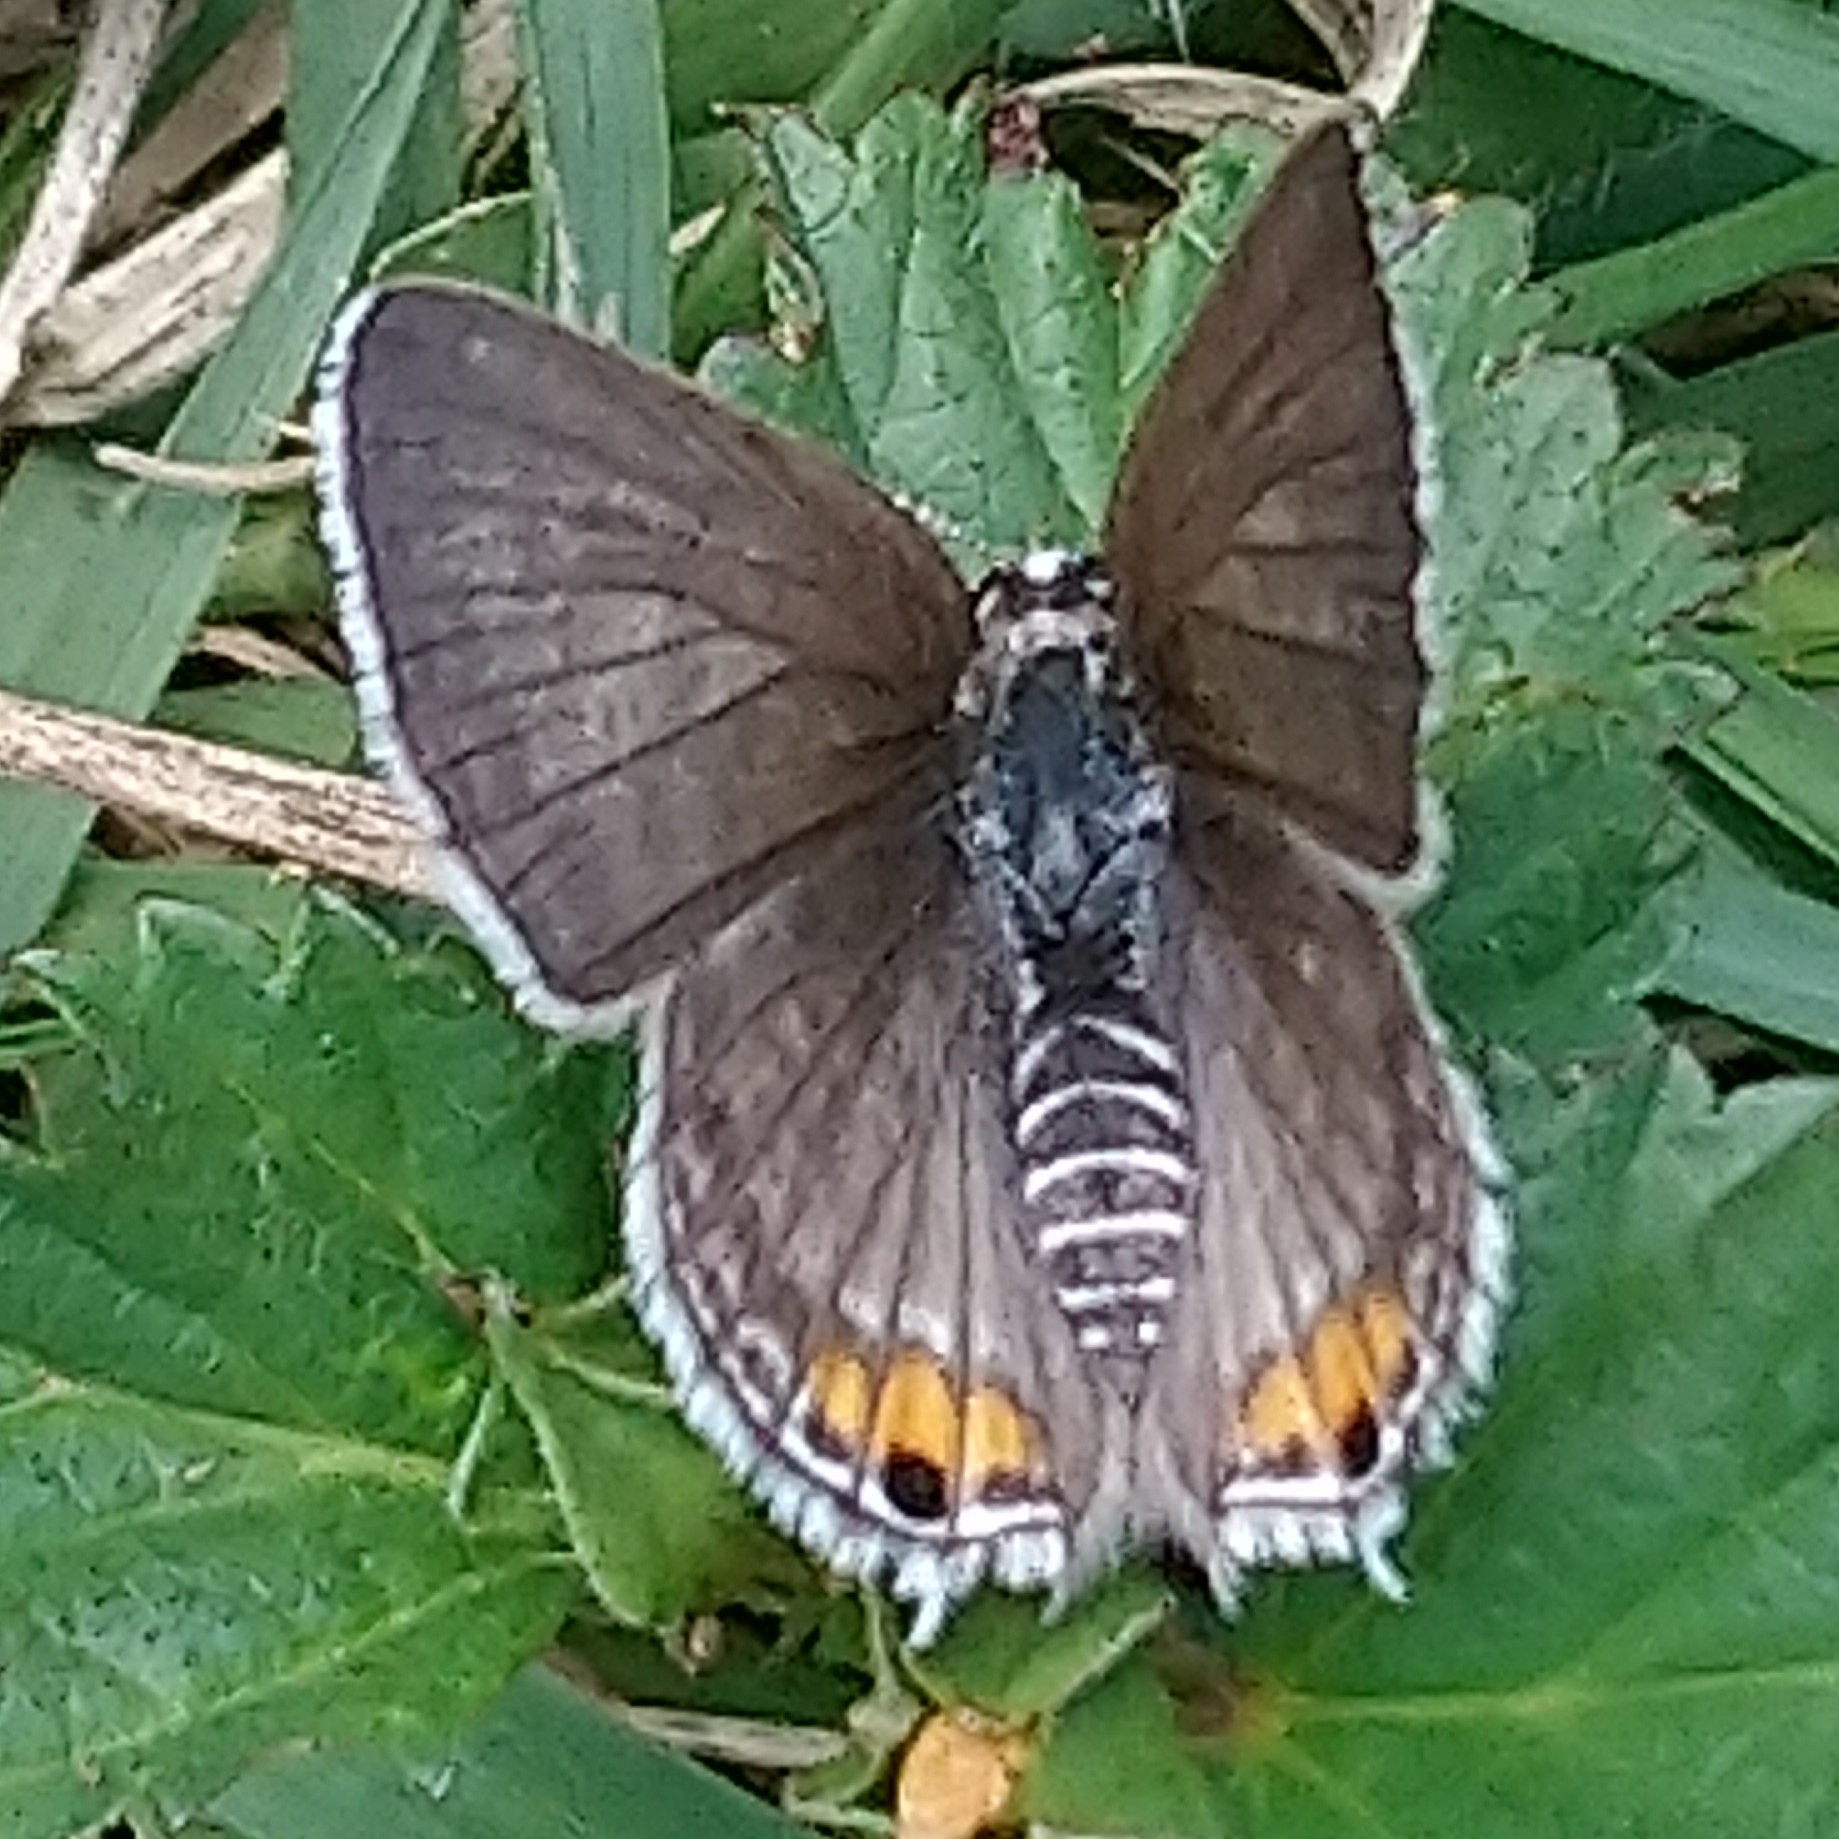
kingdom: Animalia
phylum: Arthropoda
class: Insecta
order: Lepidoptera
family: Lycaenidae
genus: Anthene
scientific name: Anthene amarah
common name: Black-striped hairtail
